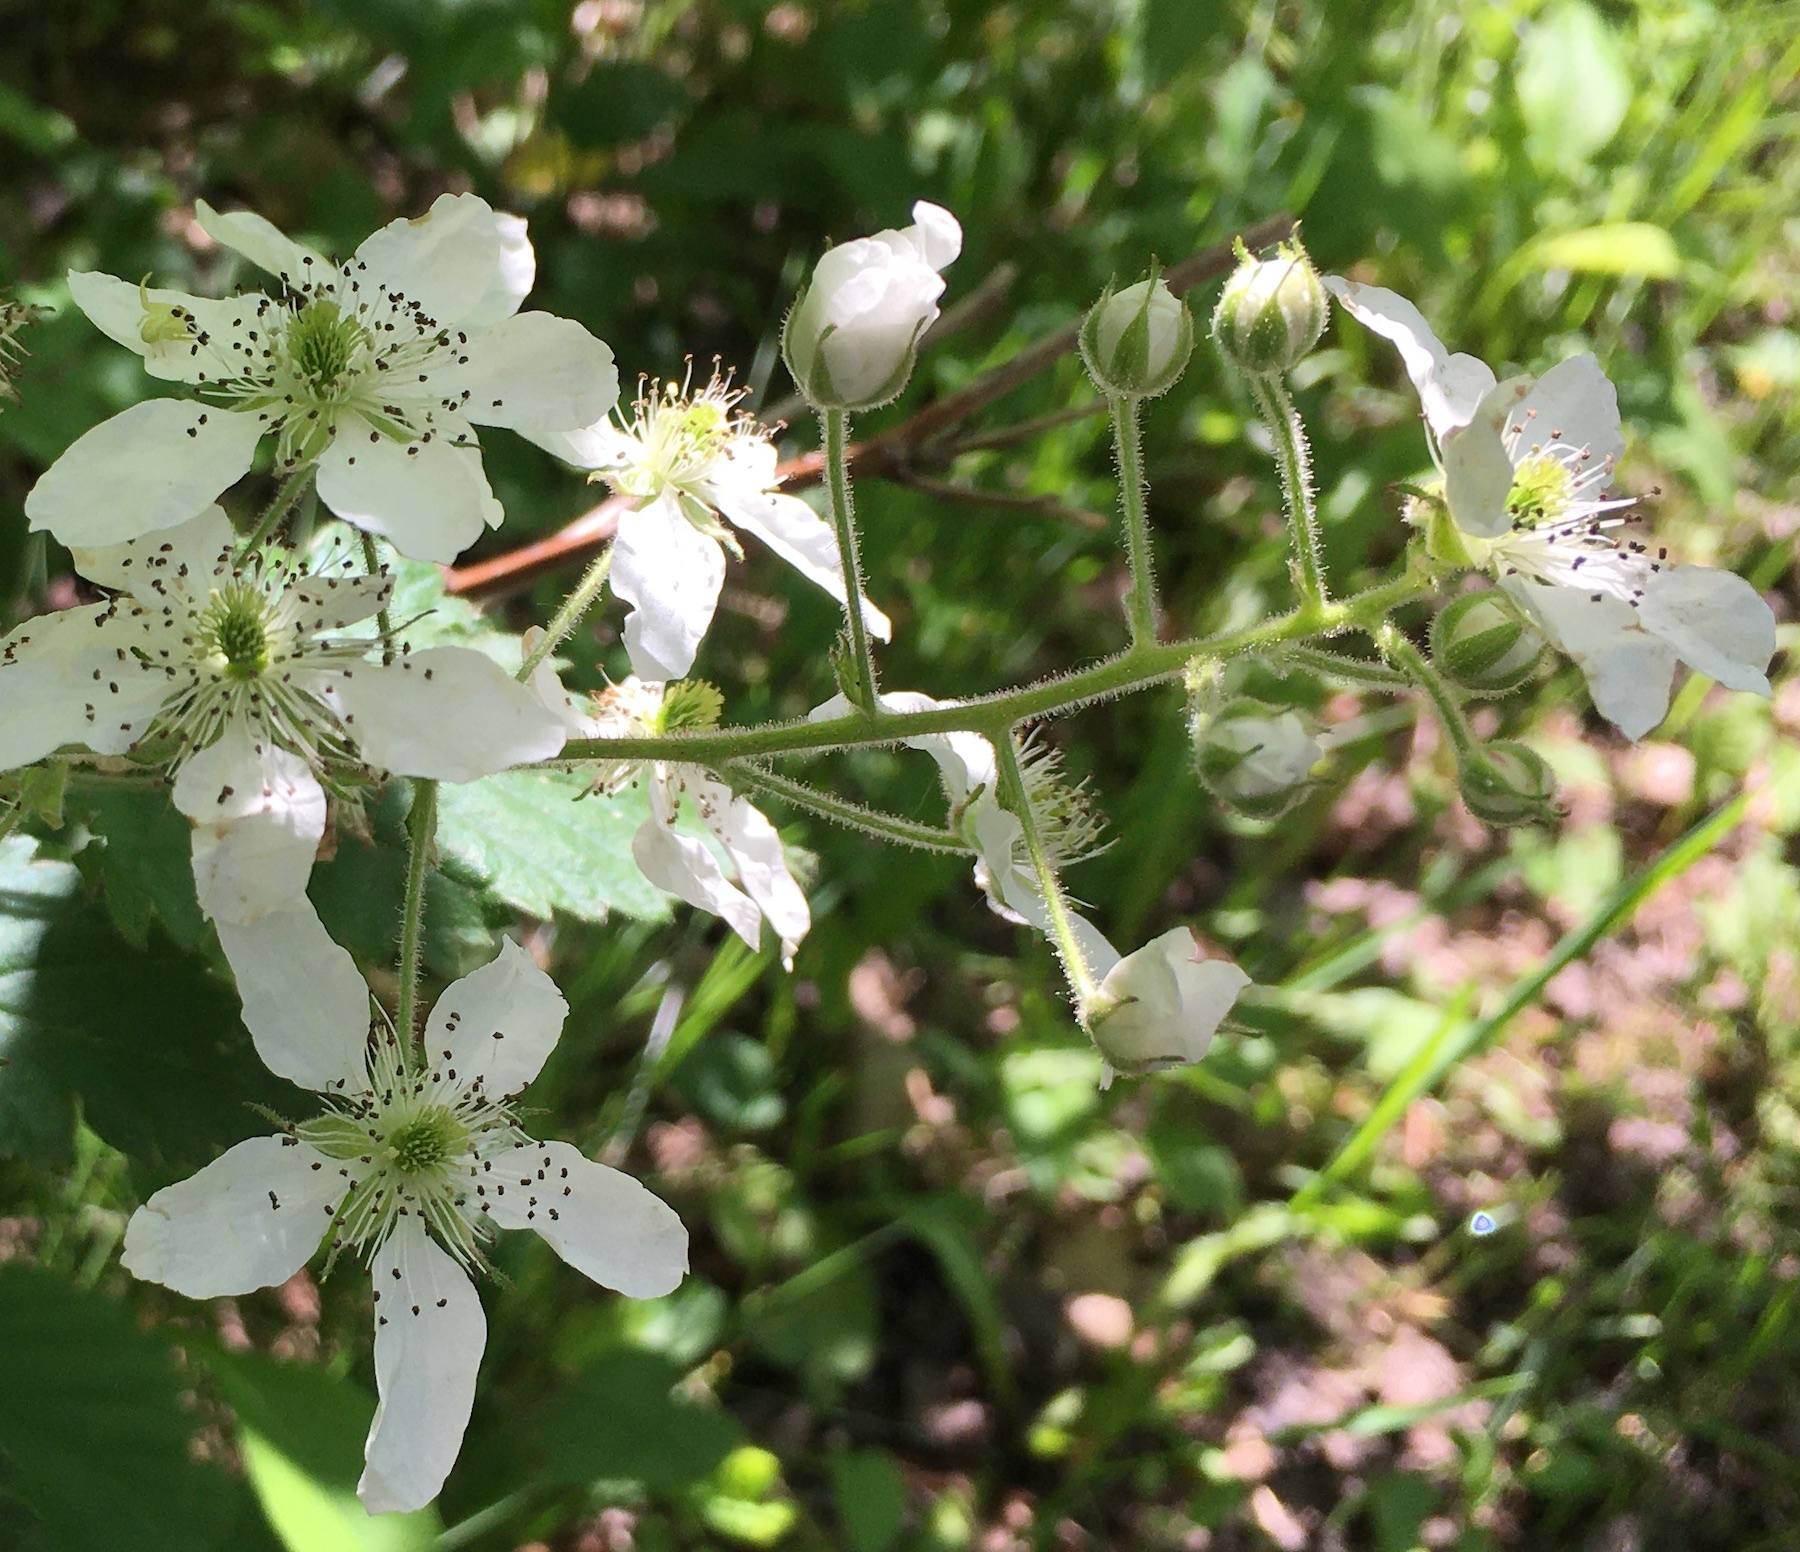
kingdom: Plantae
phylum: Tracheophyta
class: Magnoliopsida
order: Rosales
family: Rosaceae
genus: Rubus
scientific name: Rubus allegheniensis
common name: Allegheny blackberry
